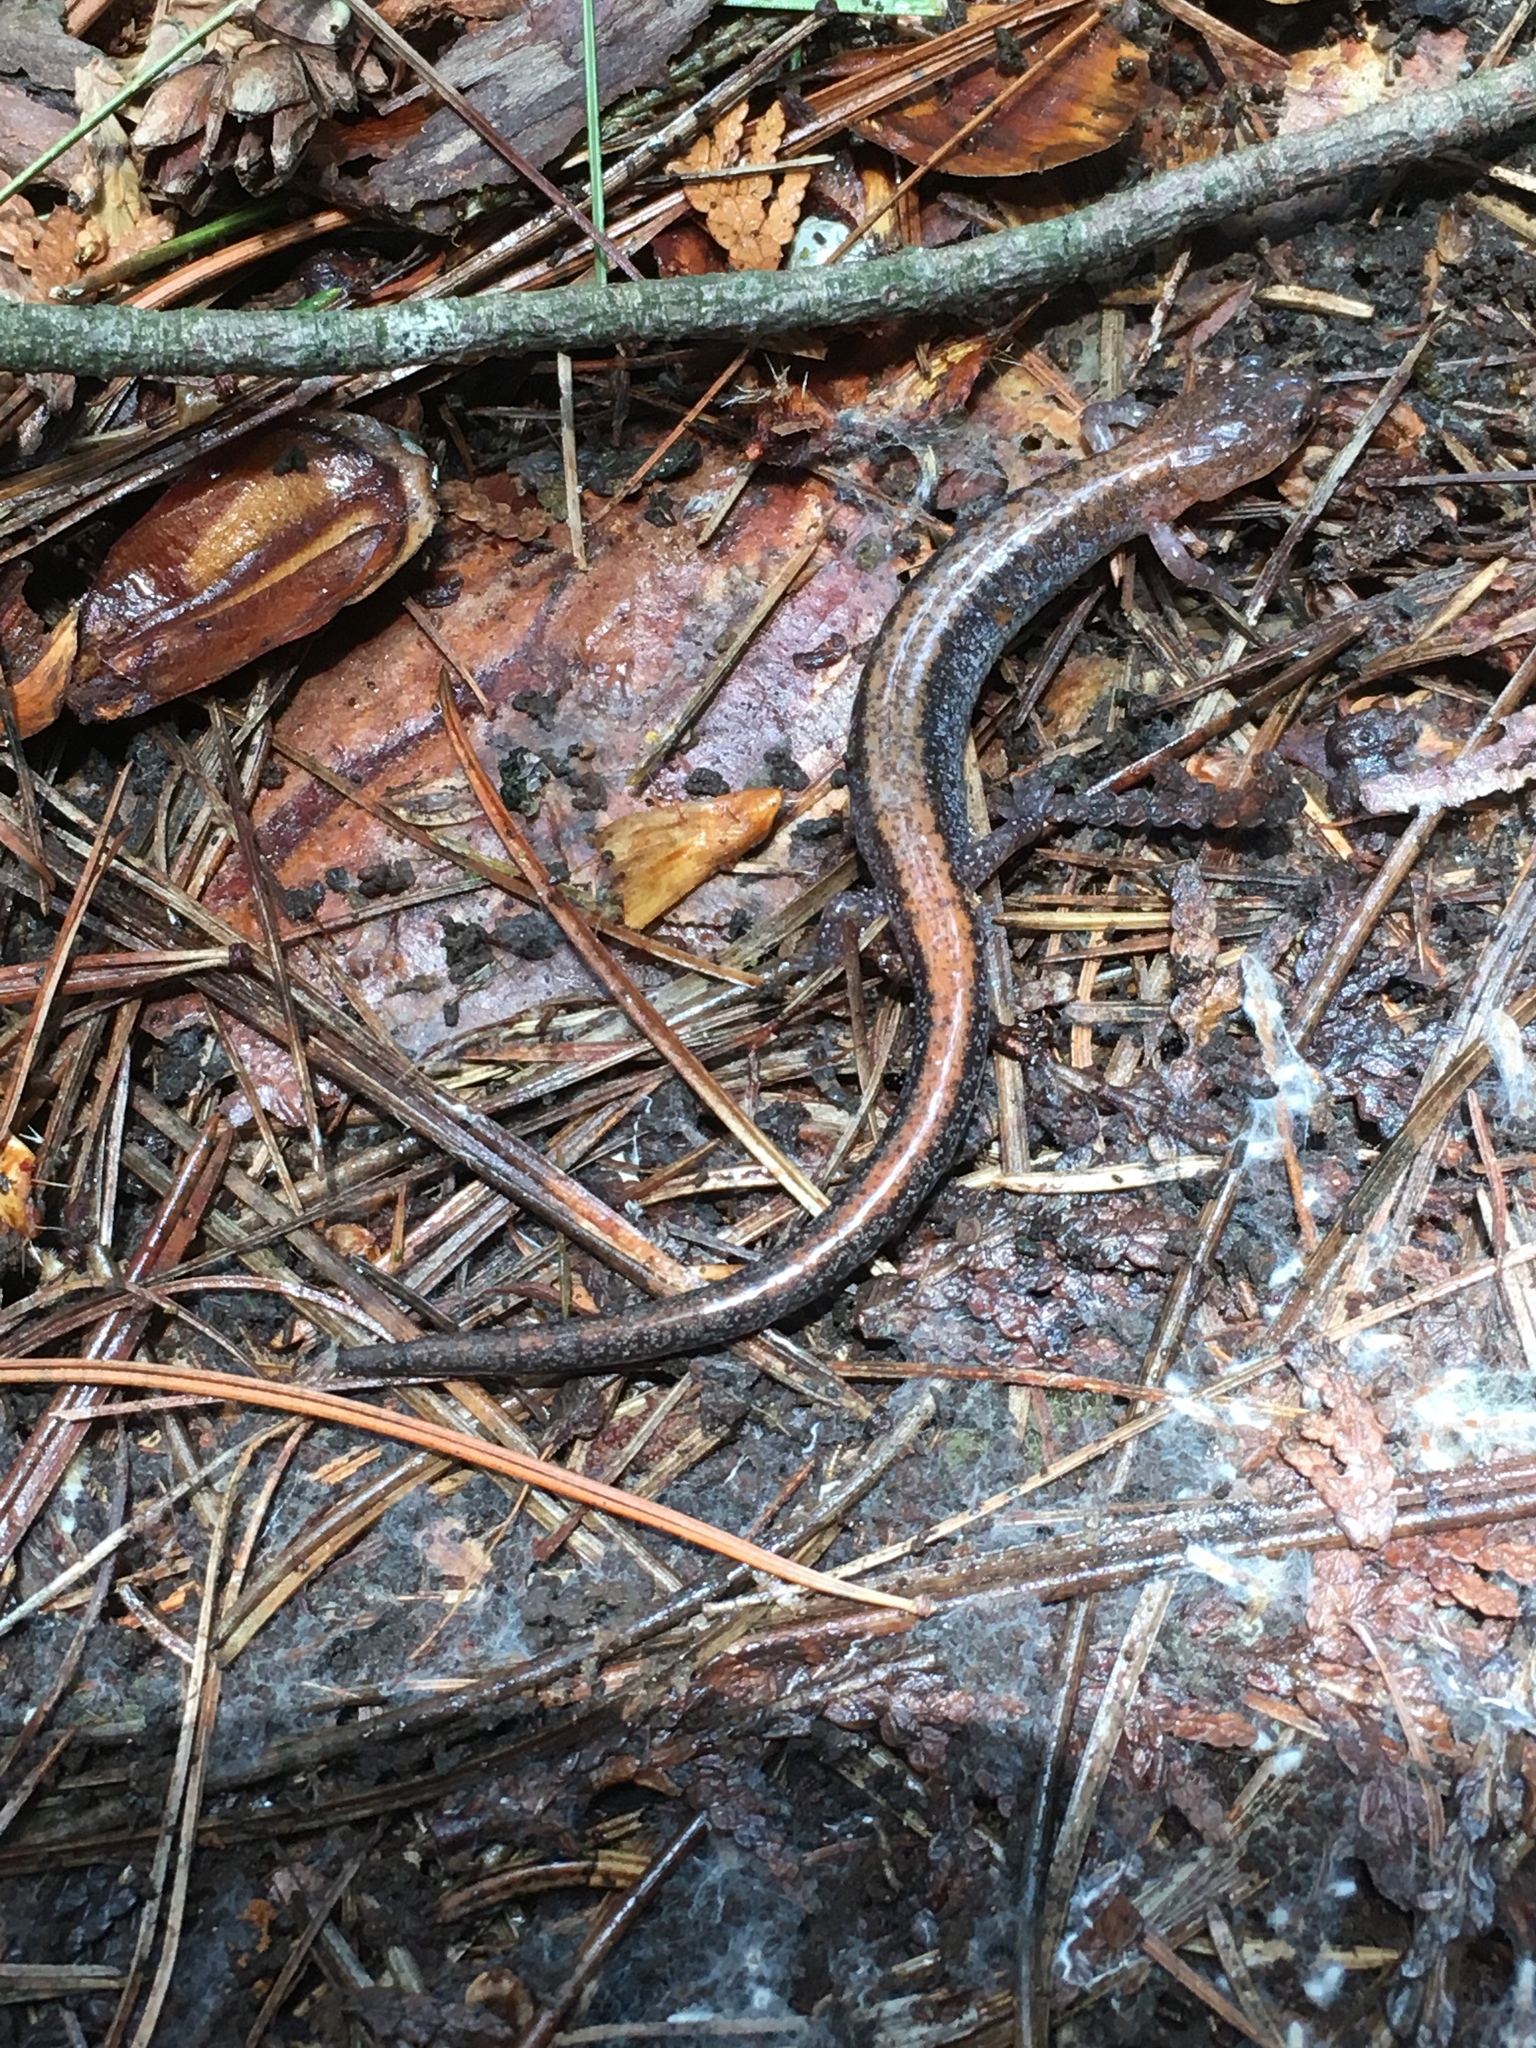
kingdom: Animalia
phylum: Chordata
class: Amphibia
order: Caudata
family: Plethodontidae
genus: Plethodon
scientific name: Plethodon cinereus
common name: Redback salamander
